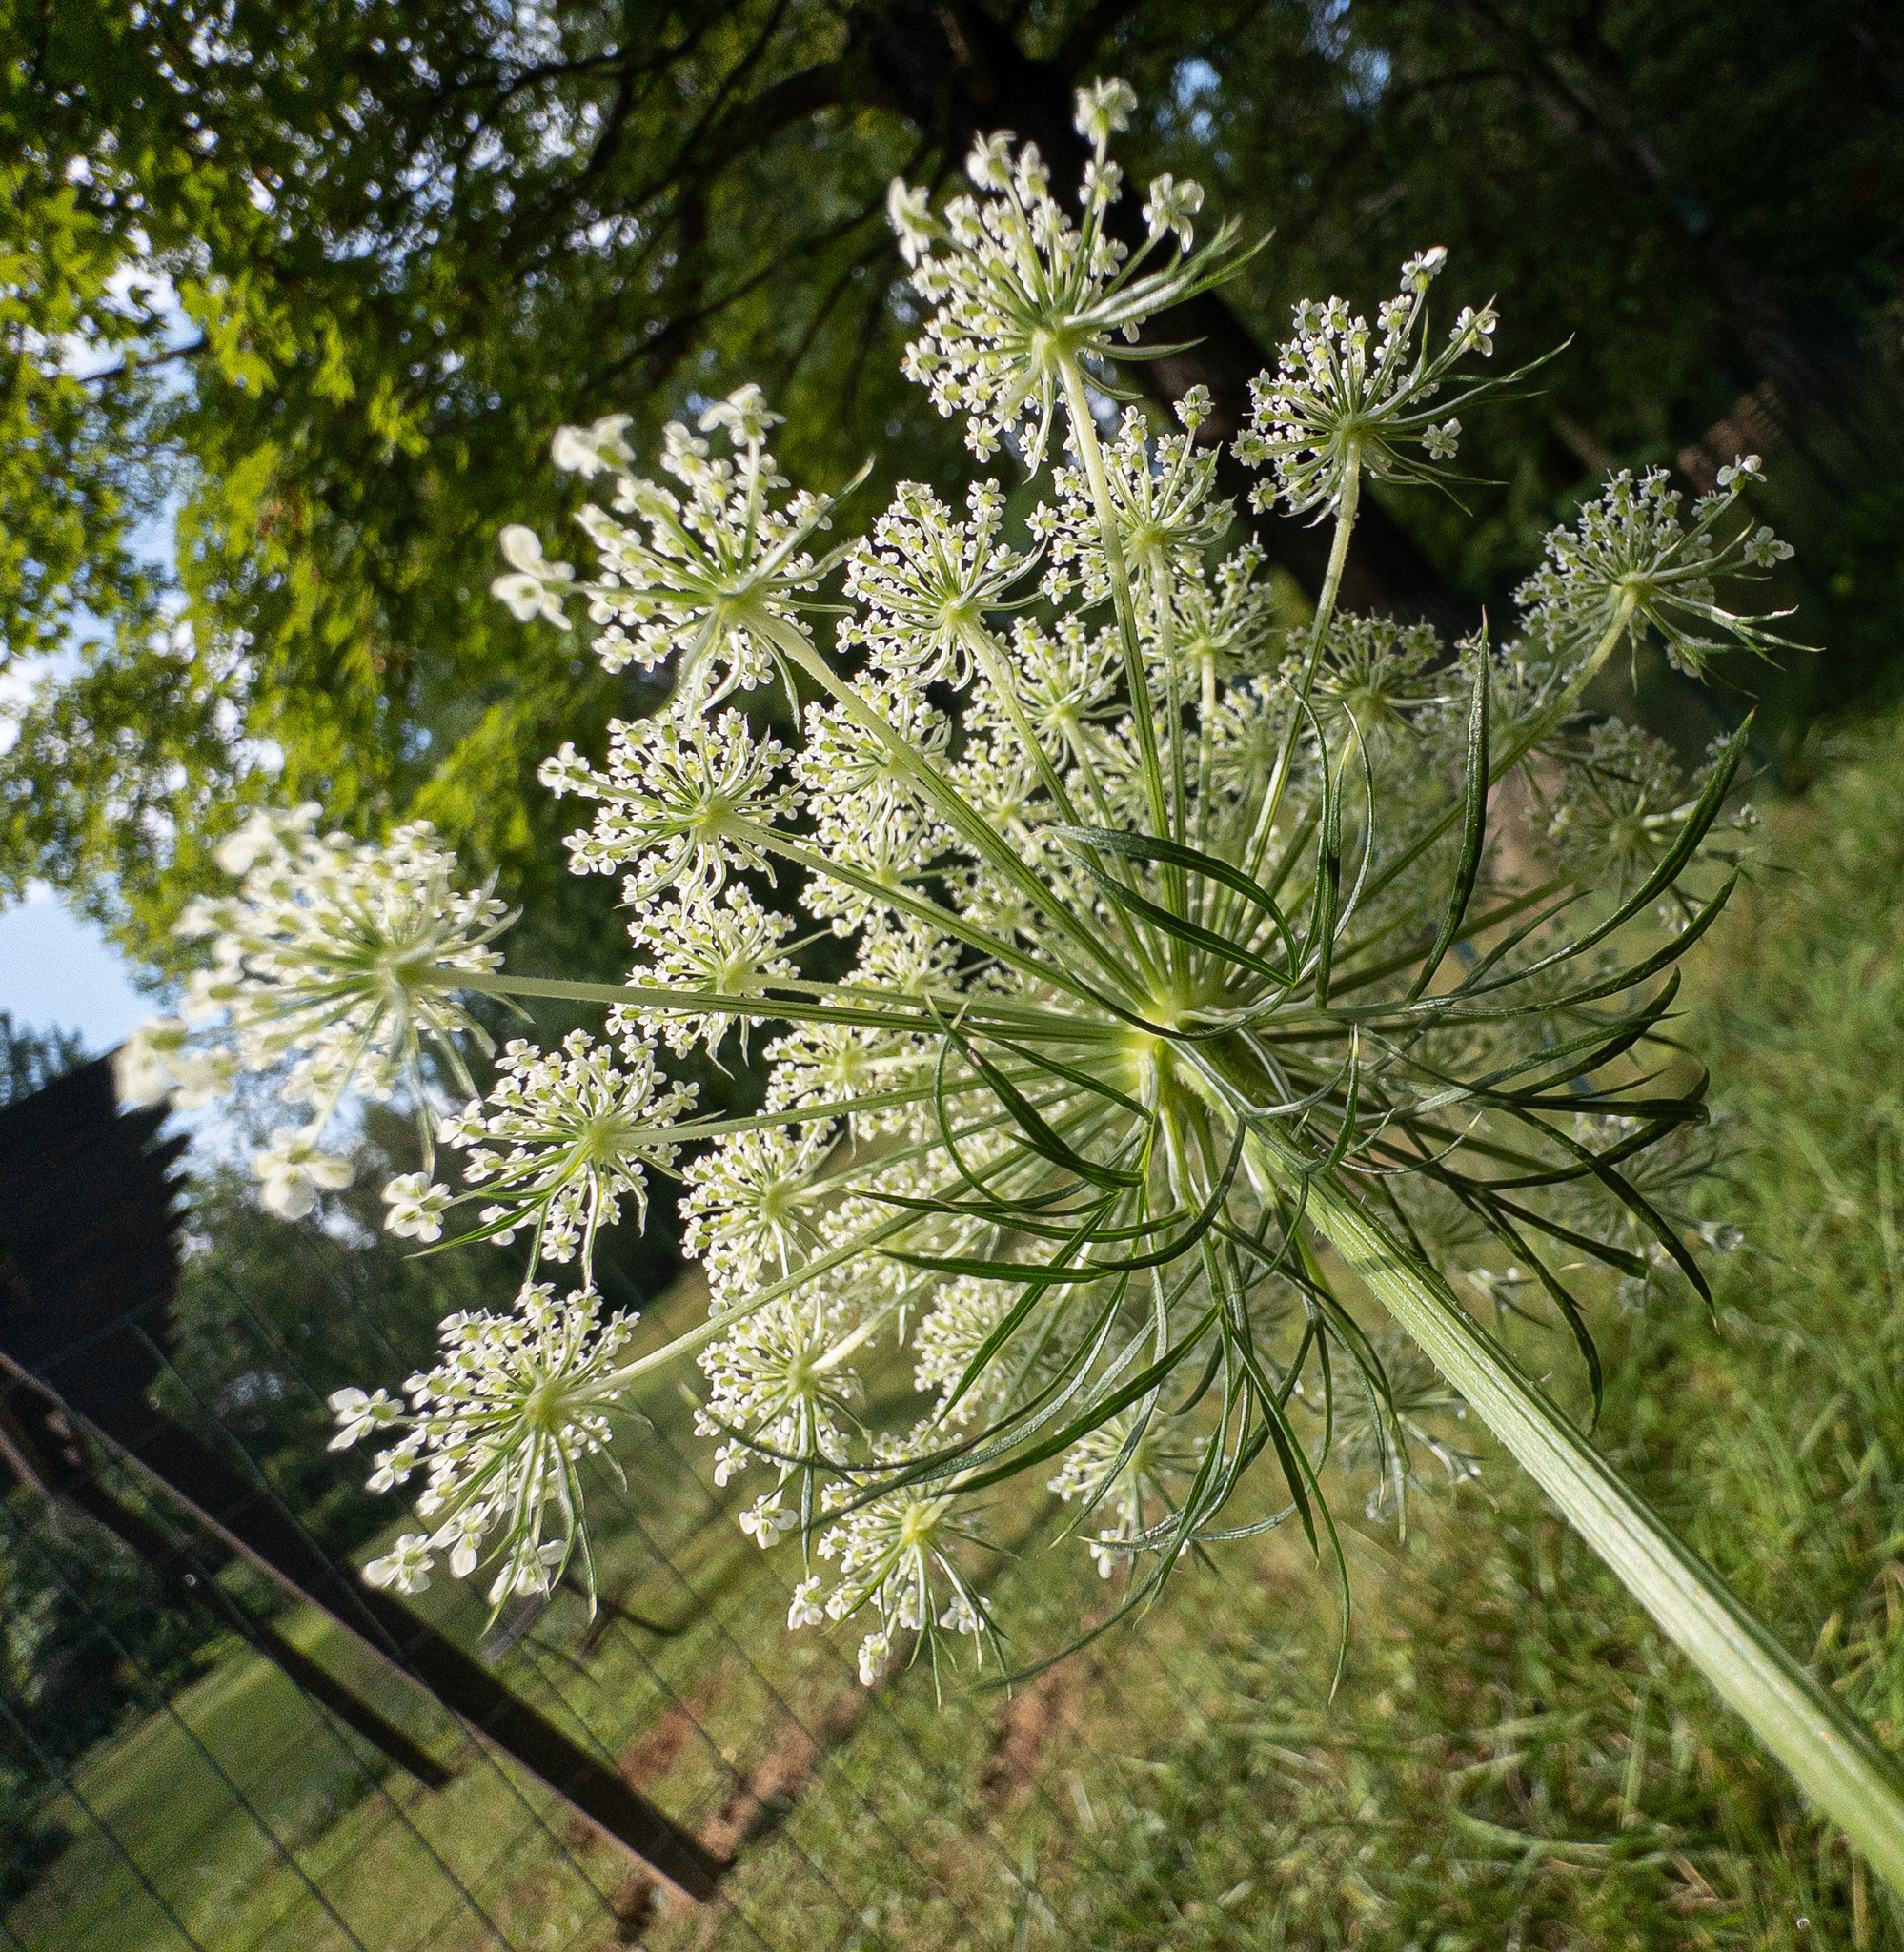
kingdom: Plantae
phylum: Tracheophyta
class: Magnoliopsida
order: Apiales
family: Apiaceae
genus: Daucus
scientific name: Daucus carota
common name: Wild carrot
